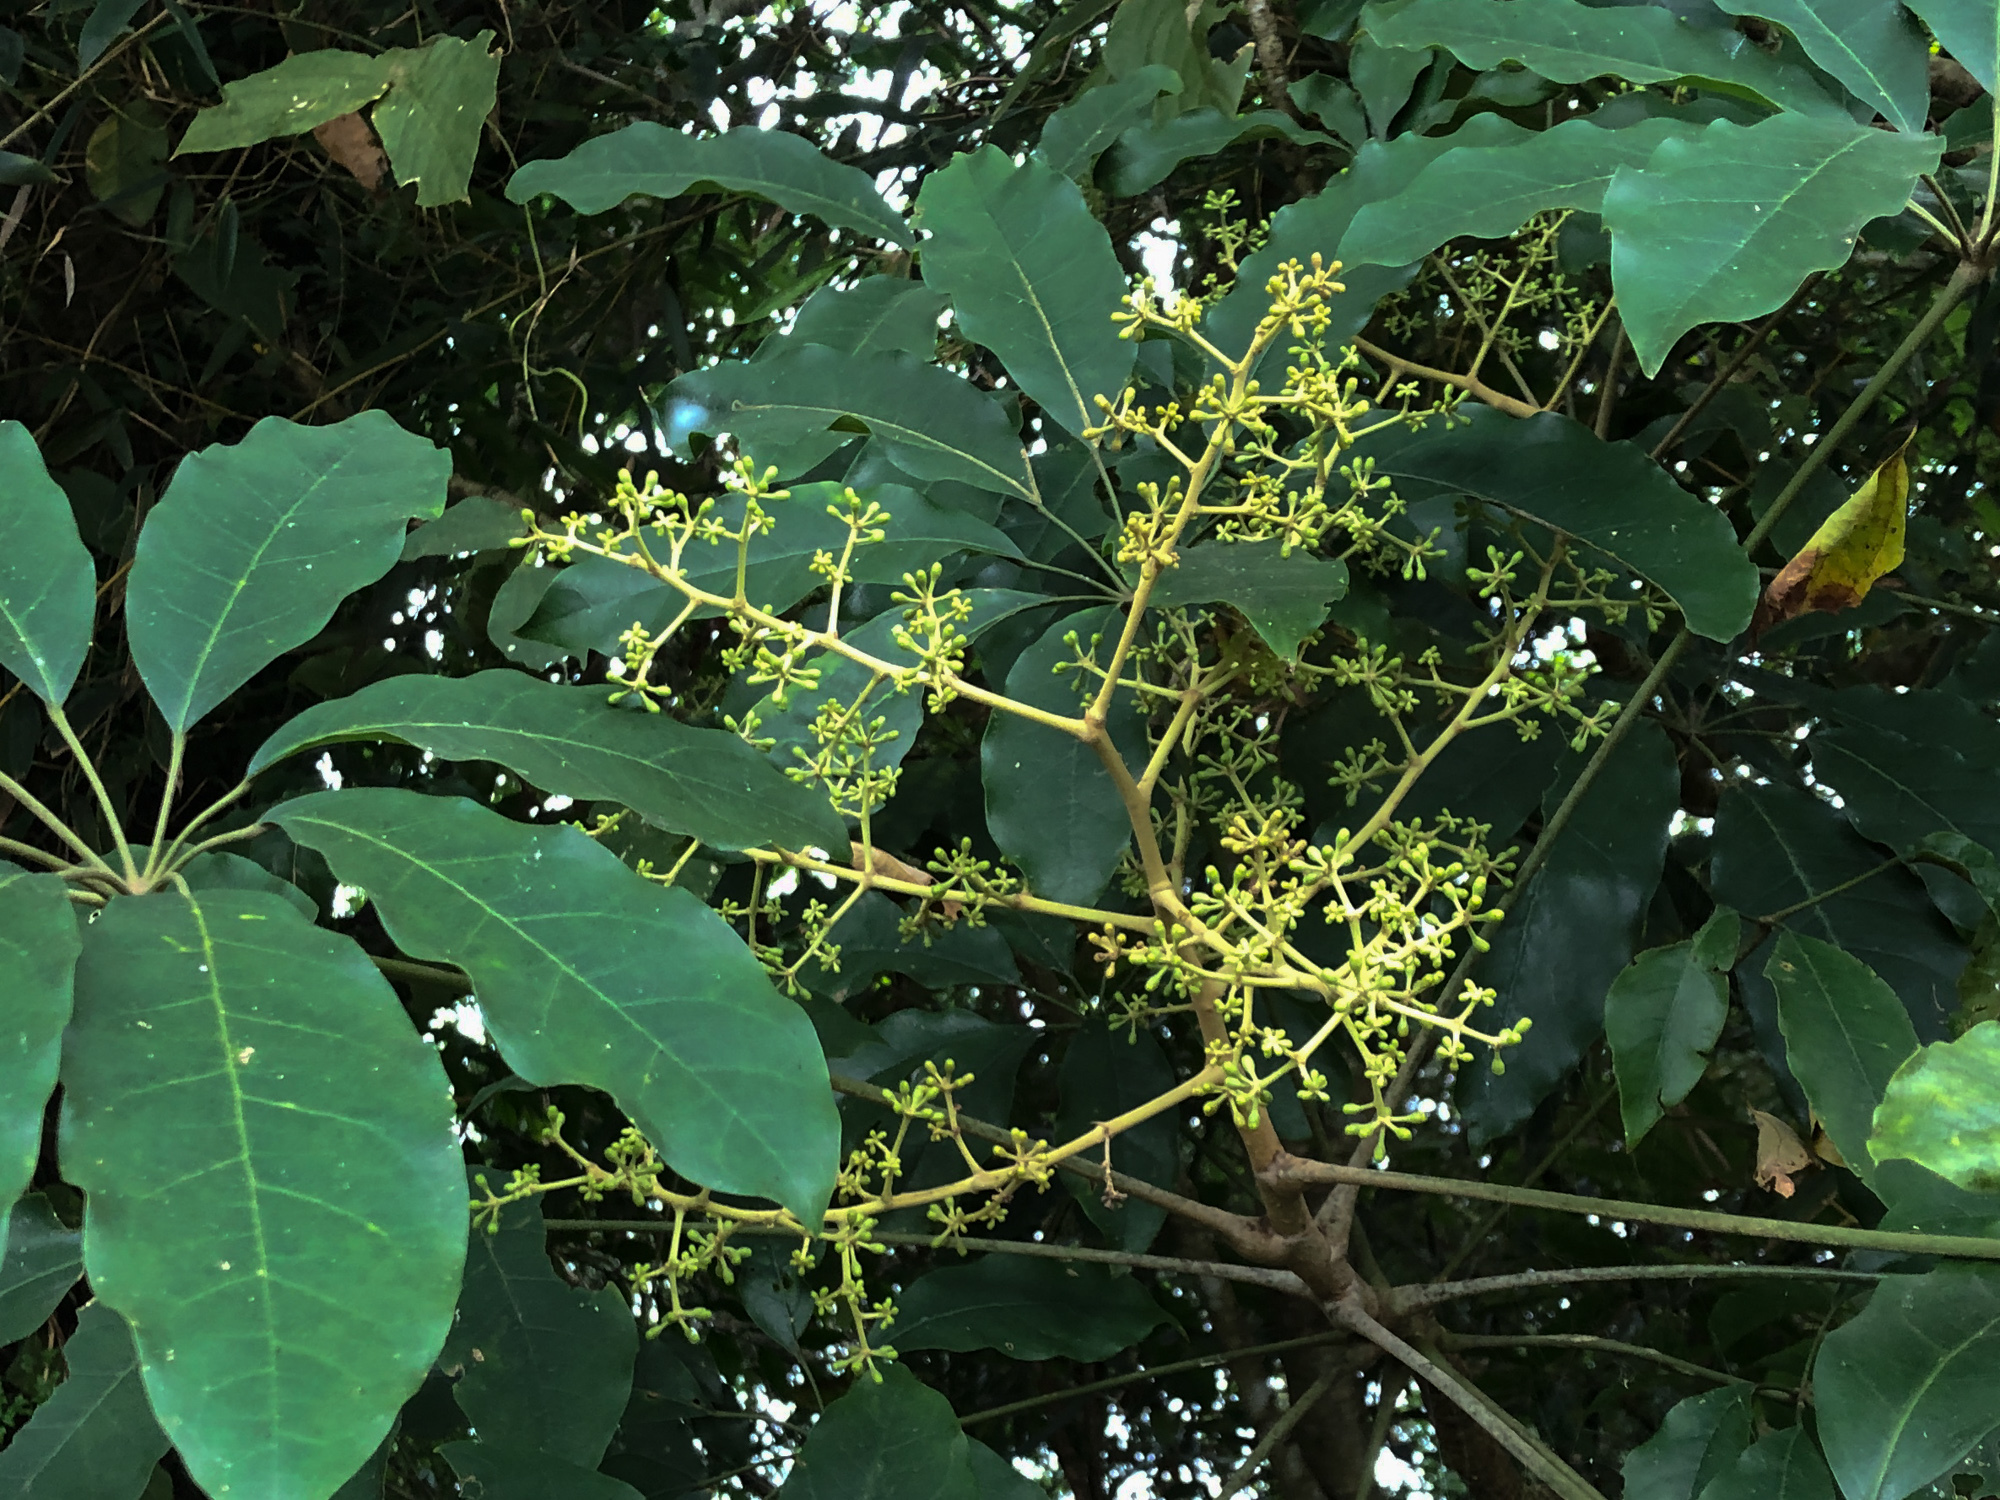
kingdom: Plantae
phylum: Tracheophyta
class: Magnoliopsida
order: Apiales
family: Araliaceae
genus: Heptapleurum
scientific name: Heptapleurum heptaphyllum
